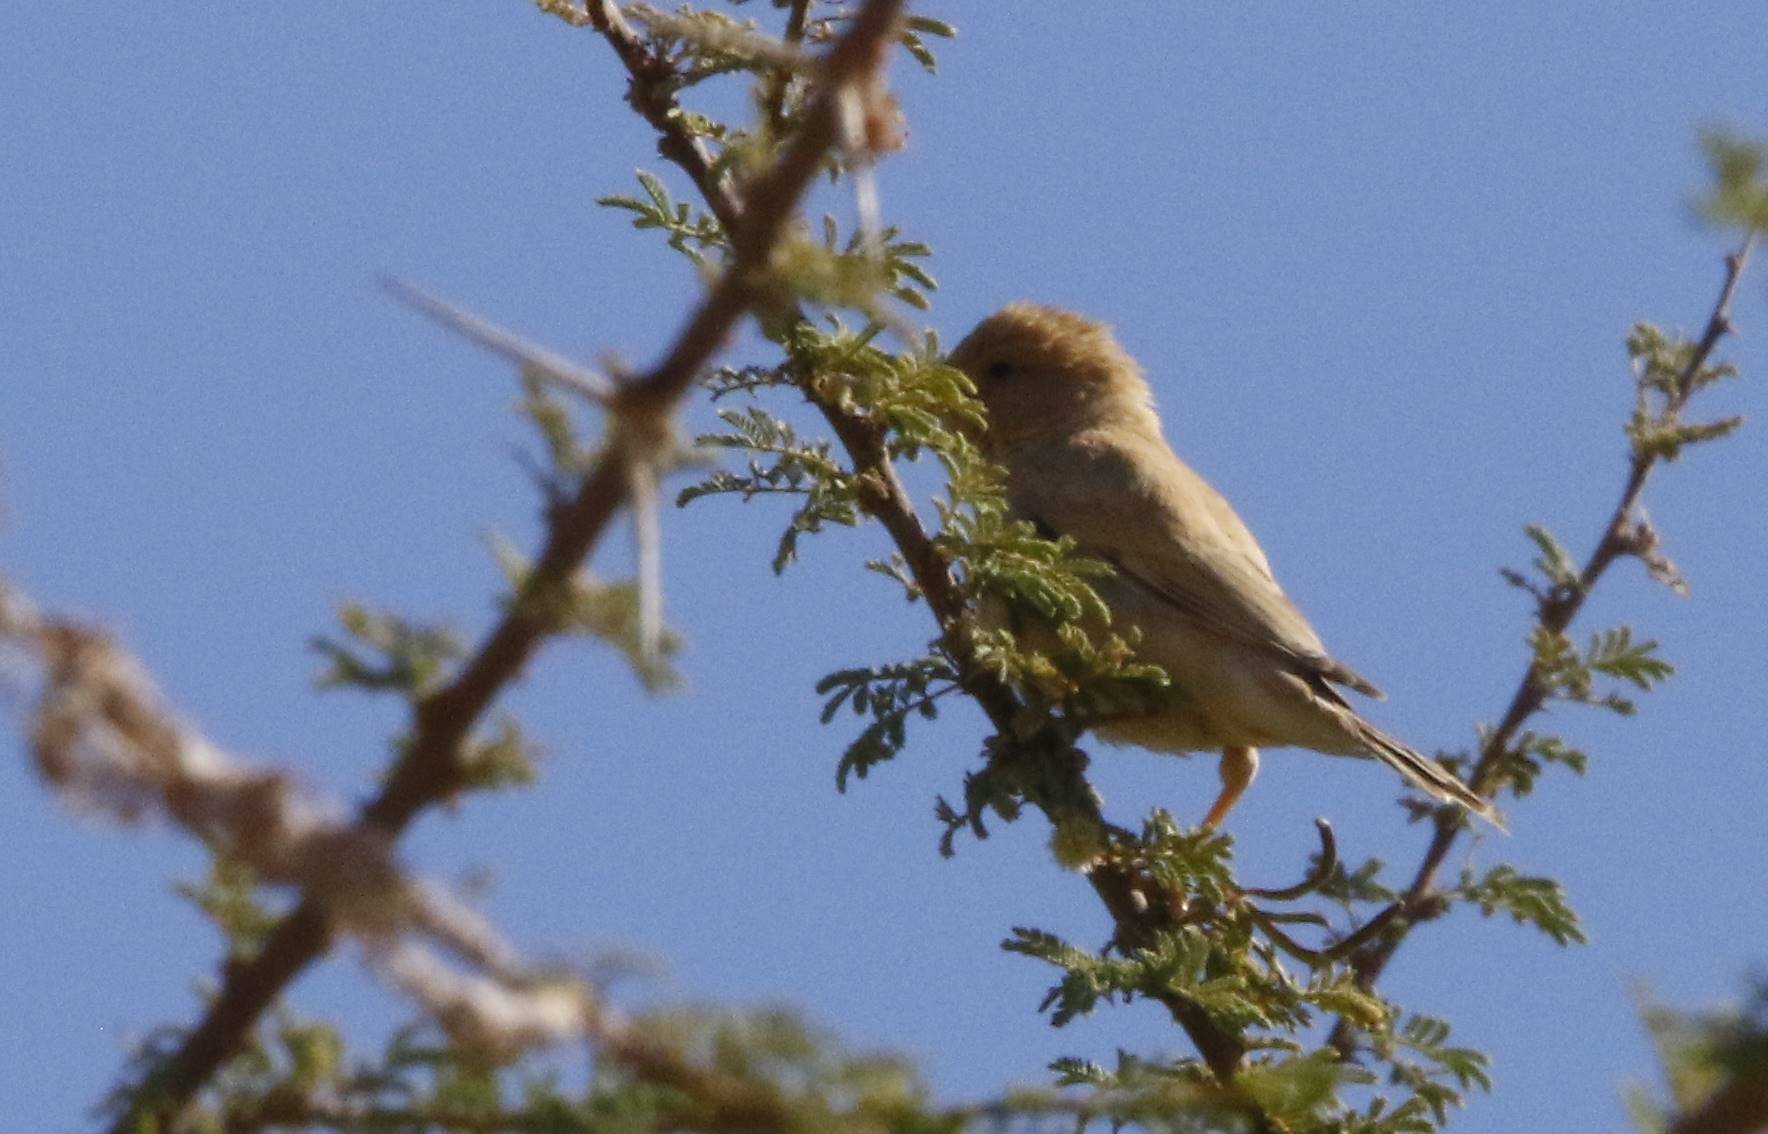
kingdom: Animalia
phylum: Chordata
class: Aves
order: Passeriformes
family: Passeridae
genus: Passer
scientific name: Passer simplex
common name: Desert sparrow
